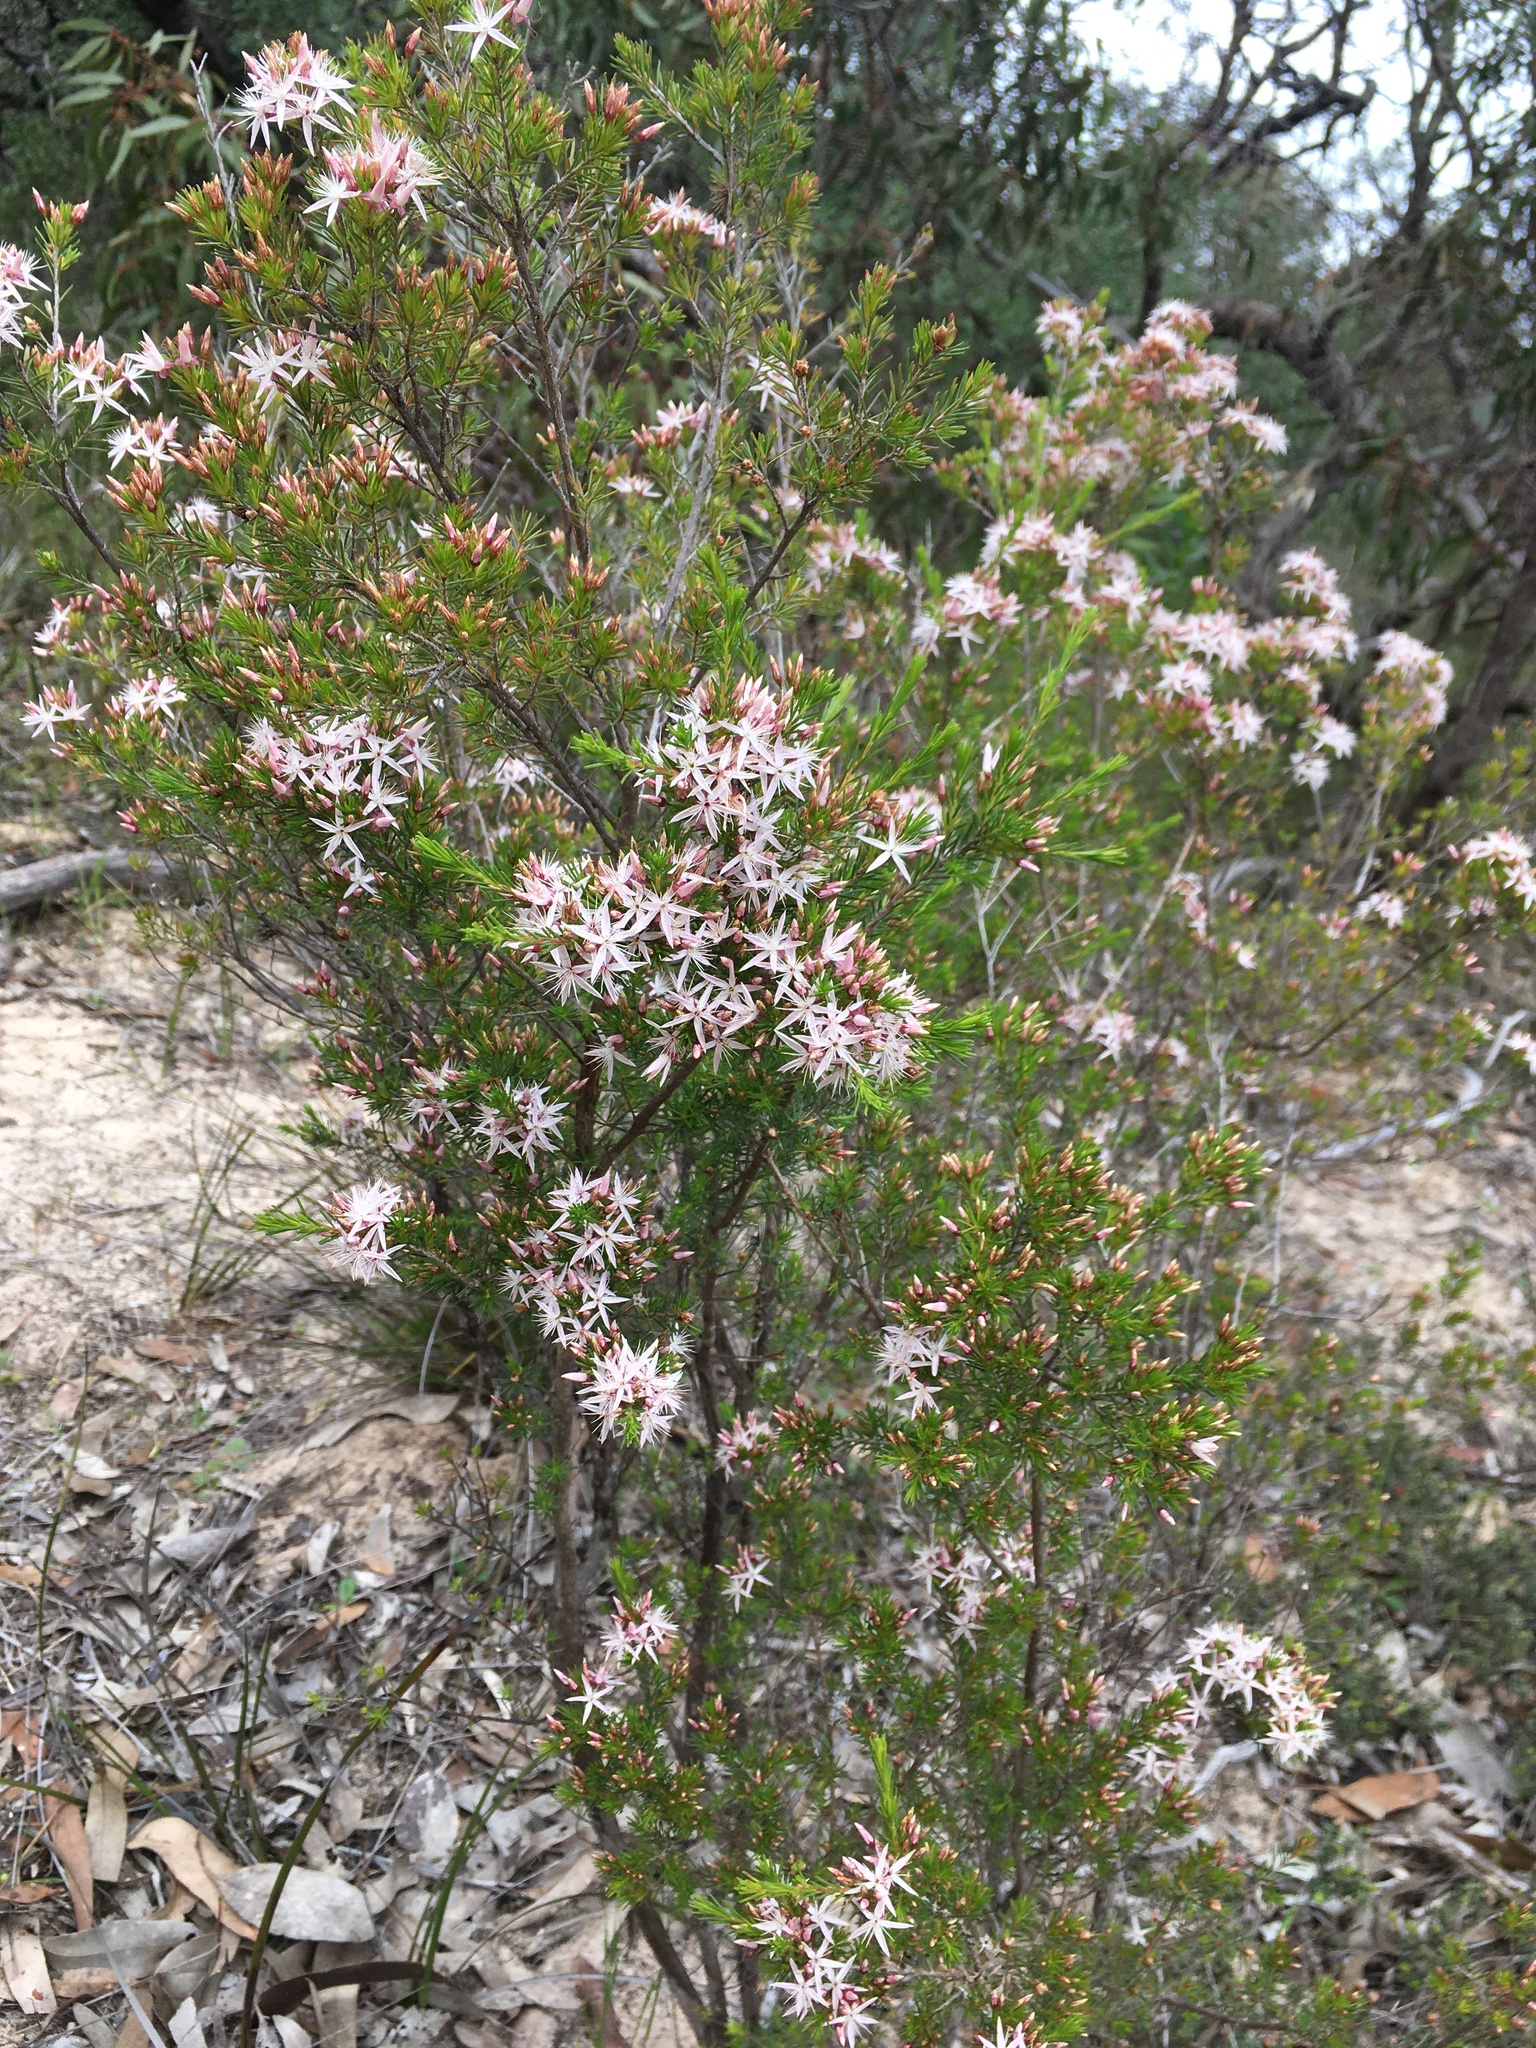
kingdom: Plantae
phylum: Tracheophyta
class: Magnoliopsida
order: Myrtales
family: Myrtaceae
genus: Calytrix
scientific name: Calytrix tetragona
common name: Common fringe myrtle
